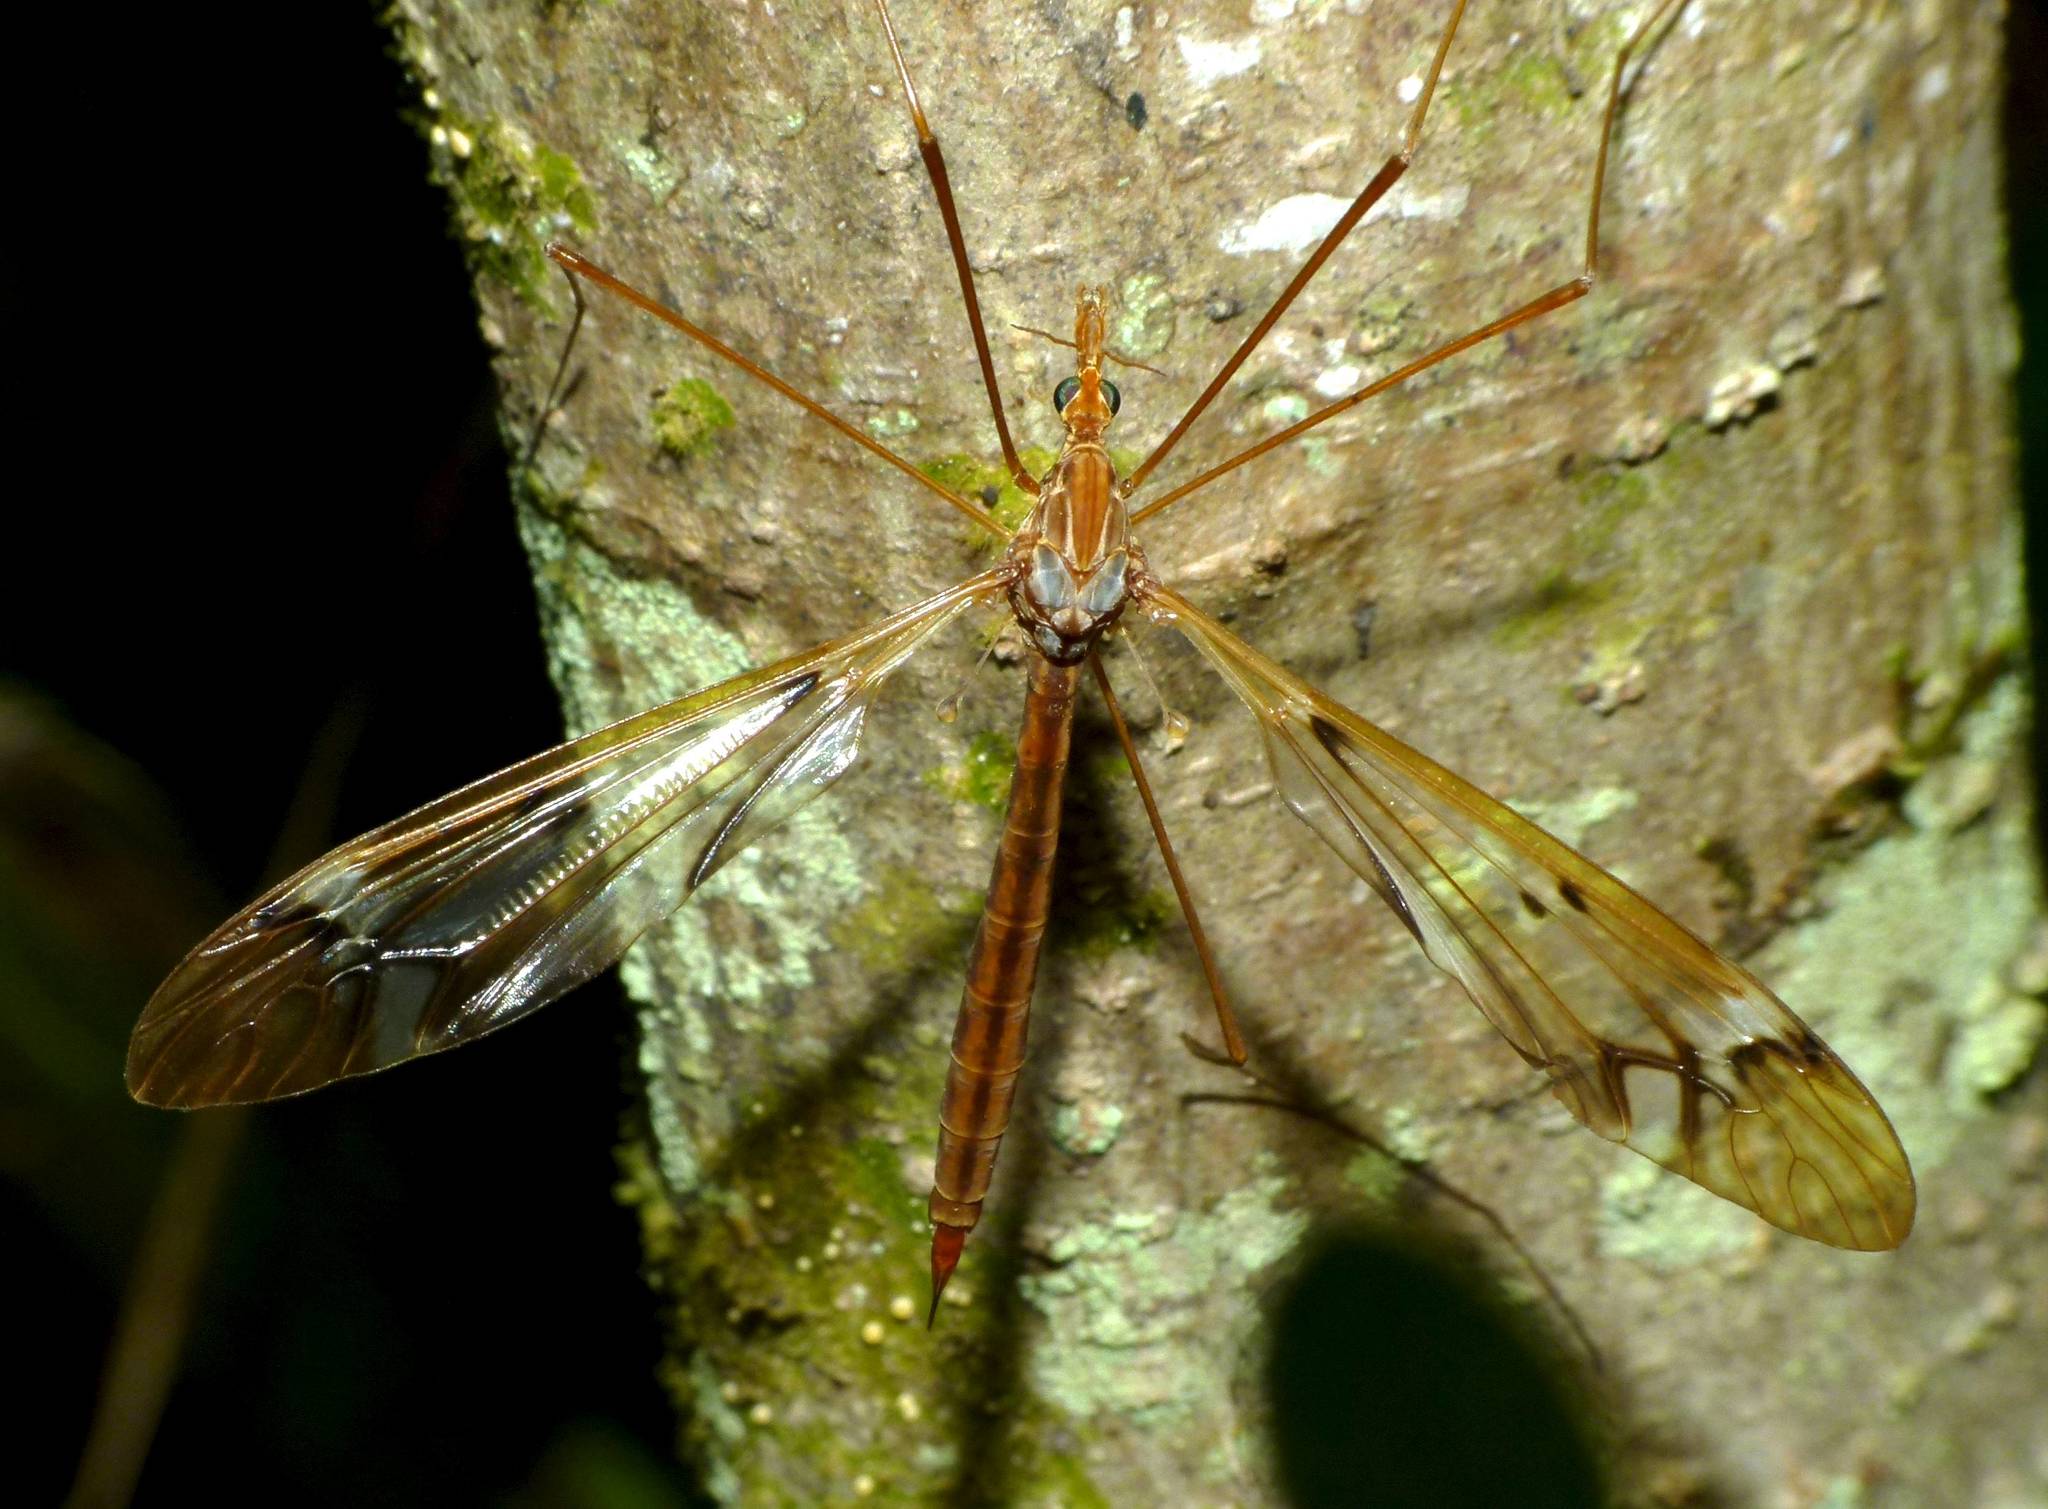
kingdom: Animalia
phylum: Arthropoda
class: Insecta
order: Diptera
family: Tipulidae
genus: Zelandotipula
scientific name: Zelandotipula fulva
